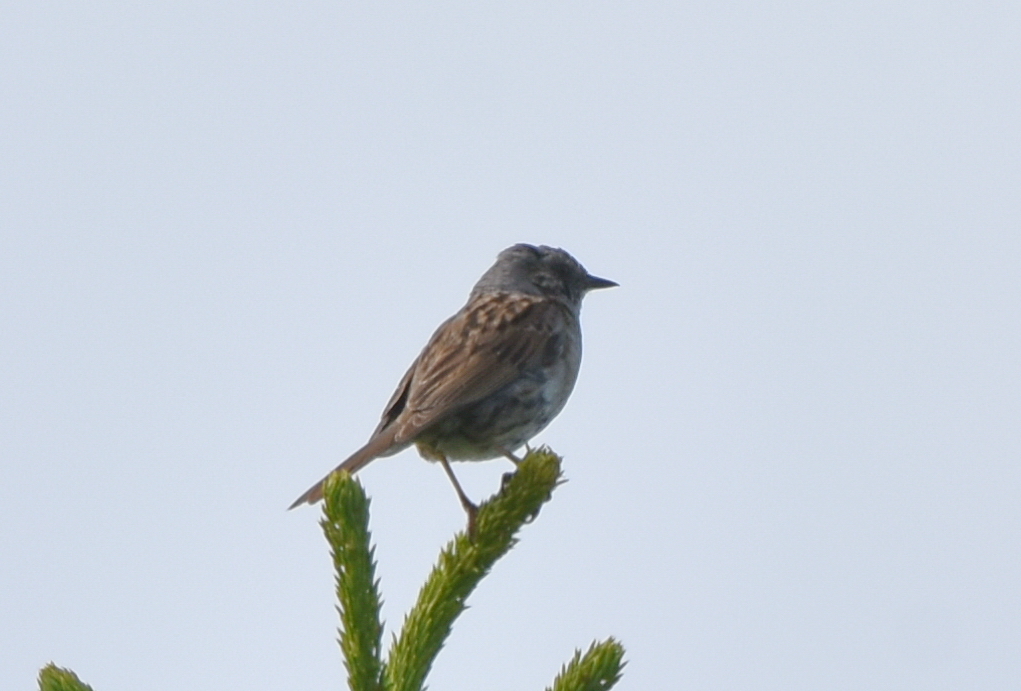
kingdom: Animalia
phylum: Chordata
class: Aves
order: Passeriformes
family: Prunellidae
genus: Prunella
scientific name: Prunella modularis
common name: Dunnock
